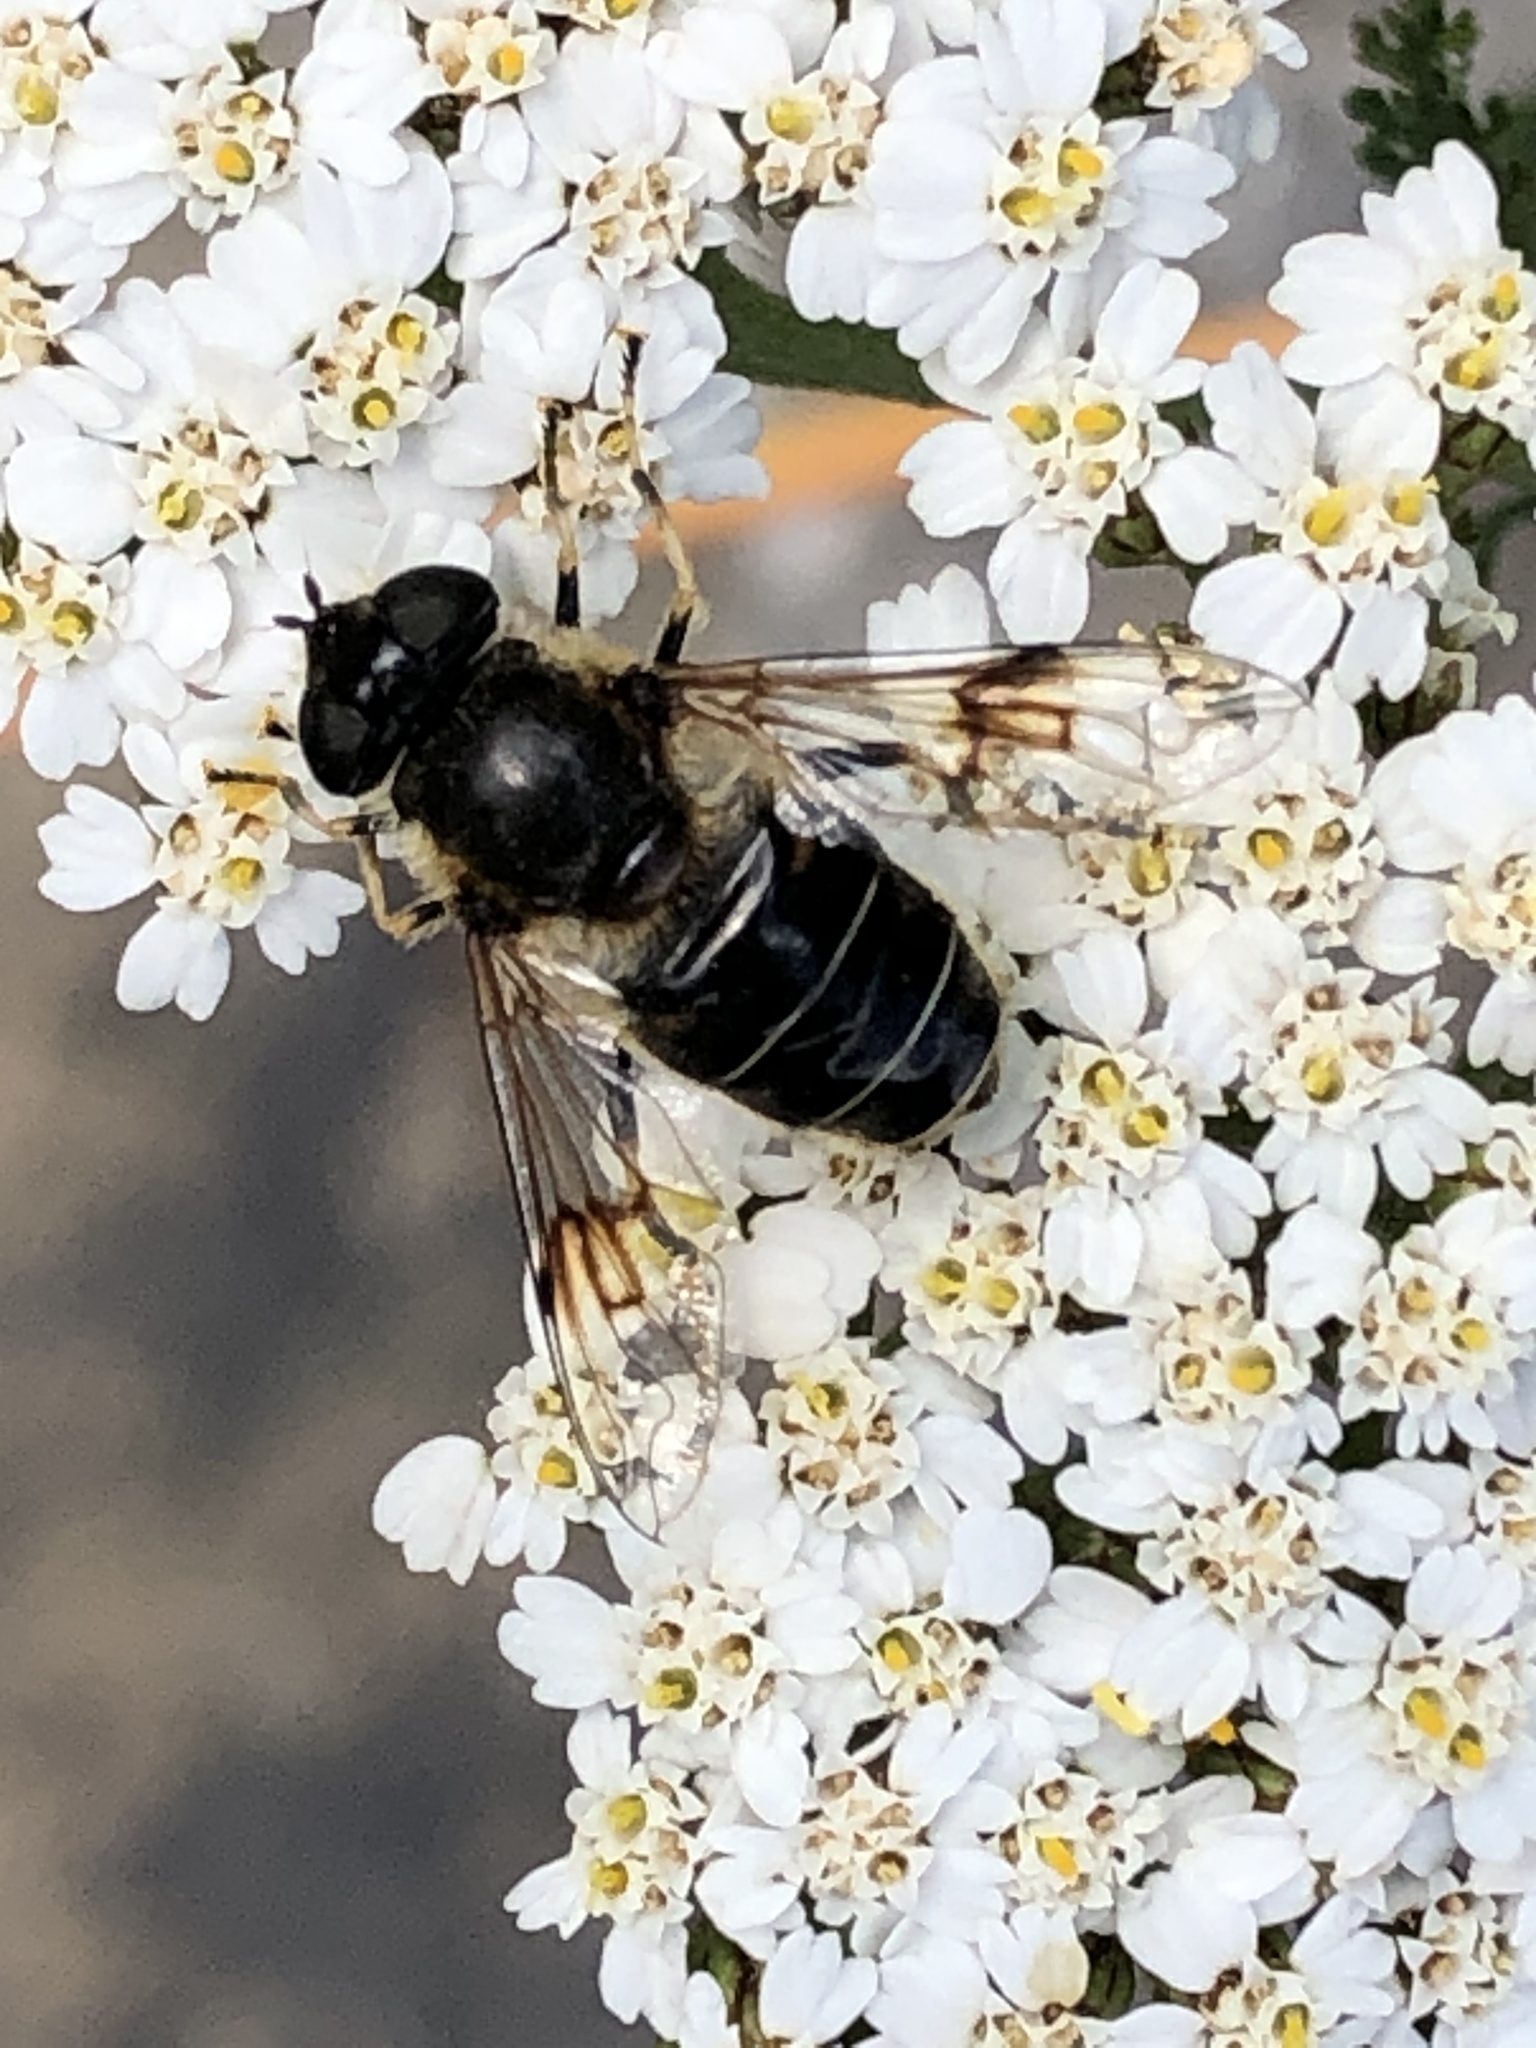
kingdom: Animalia
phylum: Arthropoda
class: Insecta
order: Diptera
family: Syrphidae
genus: Eristalis
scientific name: Eristalis rupium
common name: Hover fly
